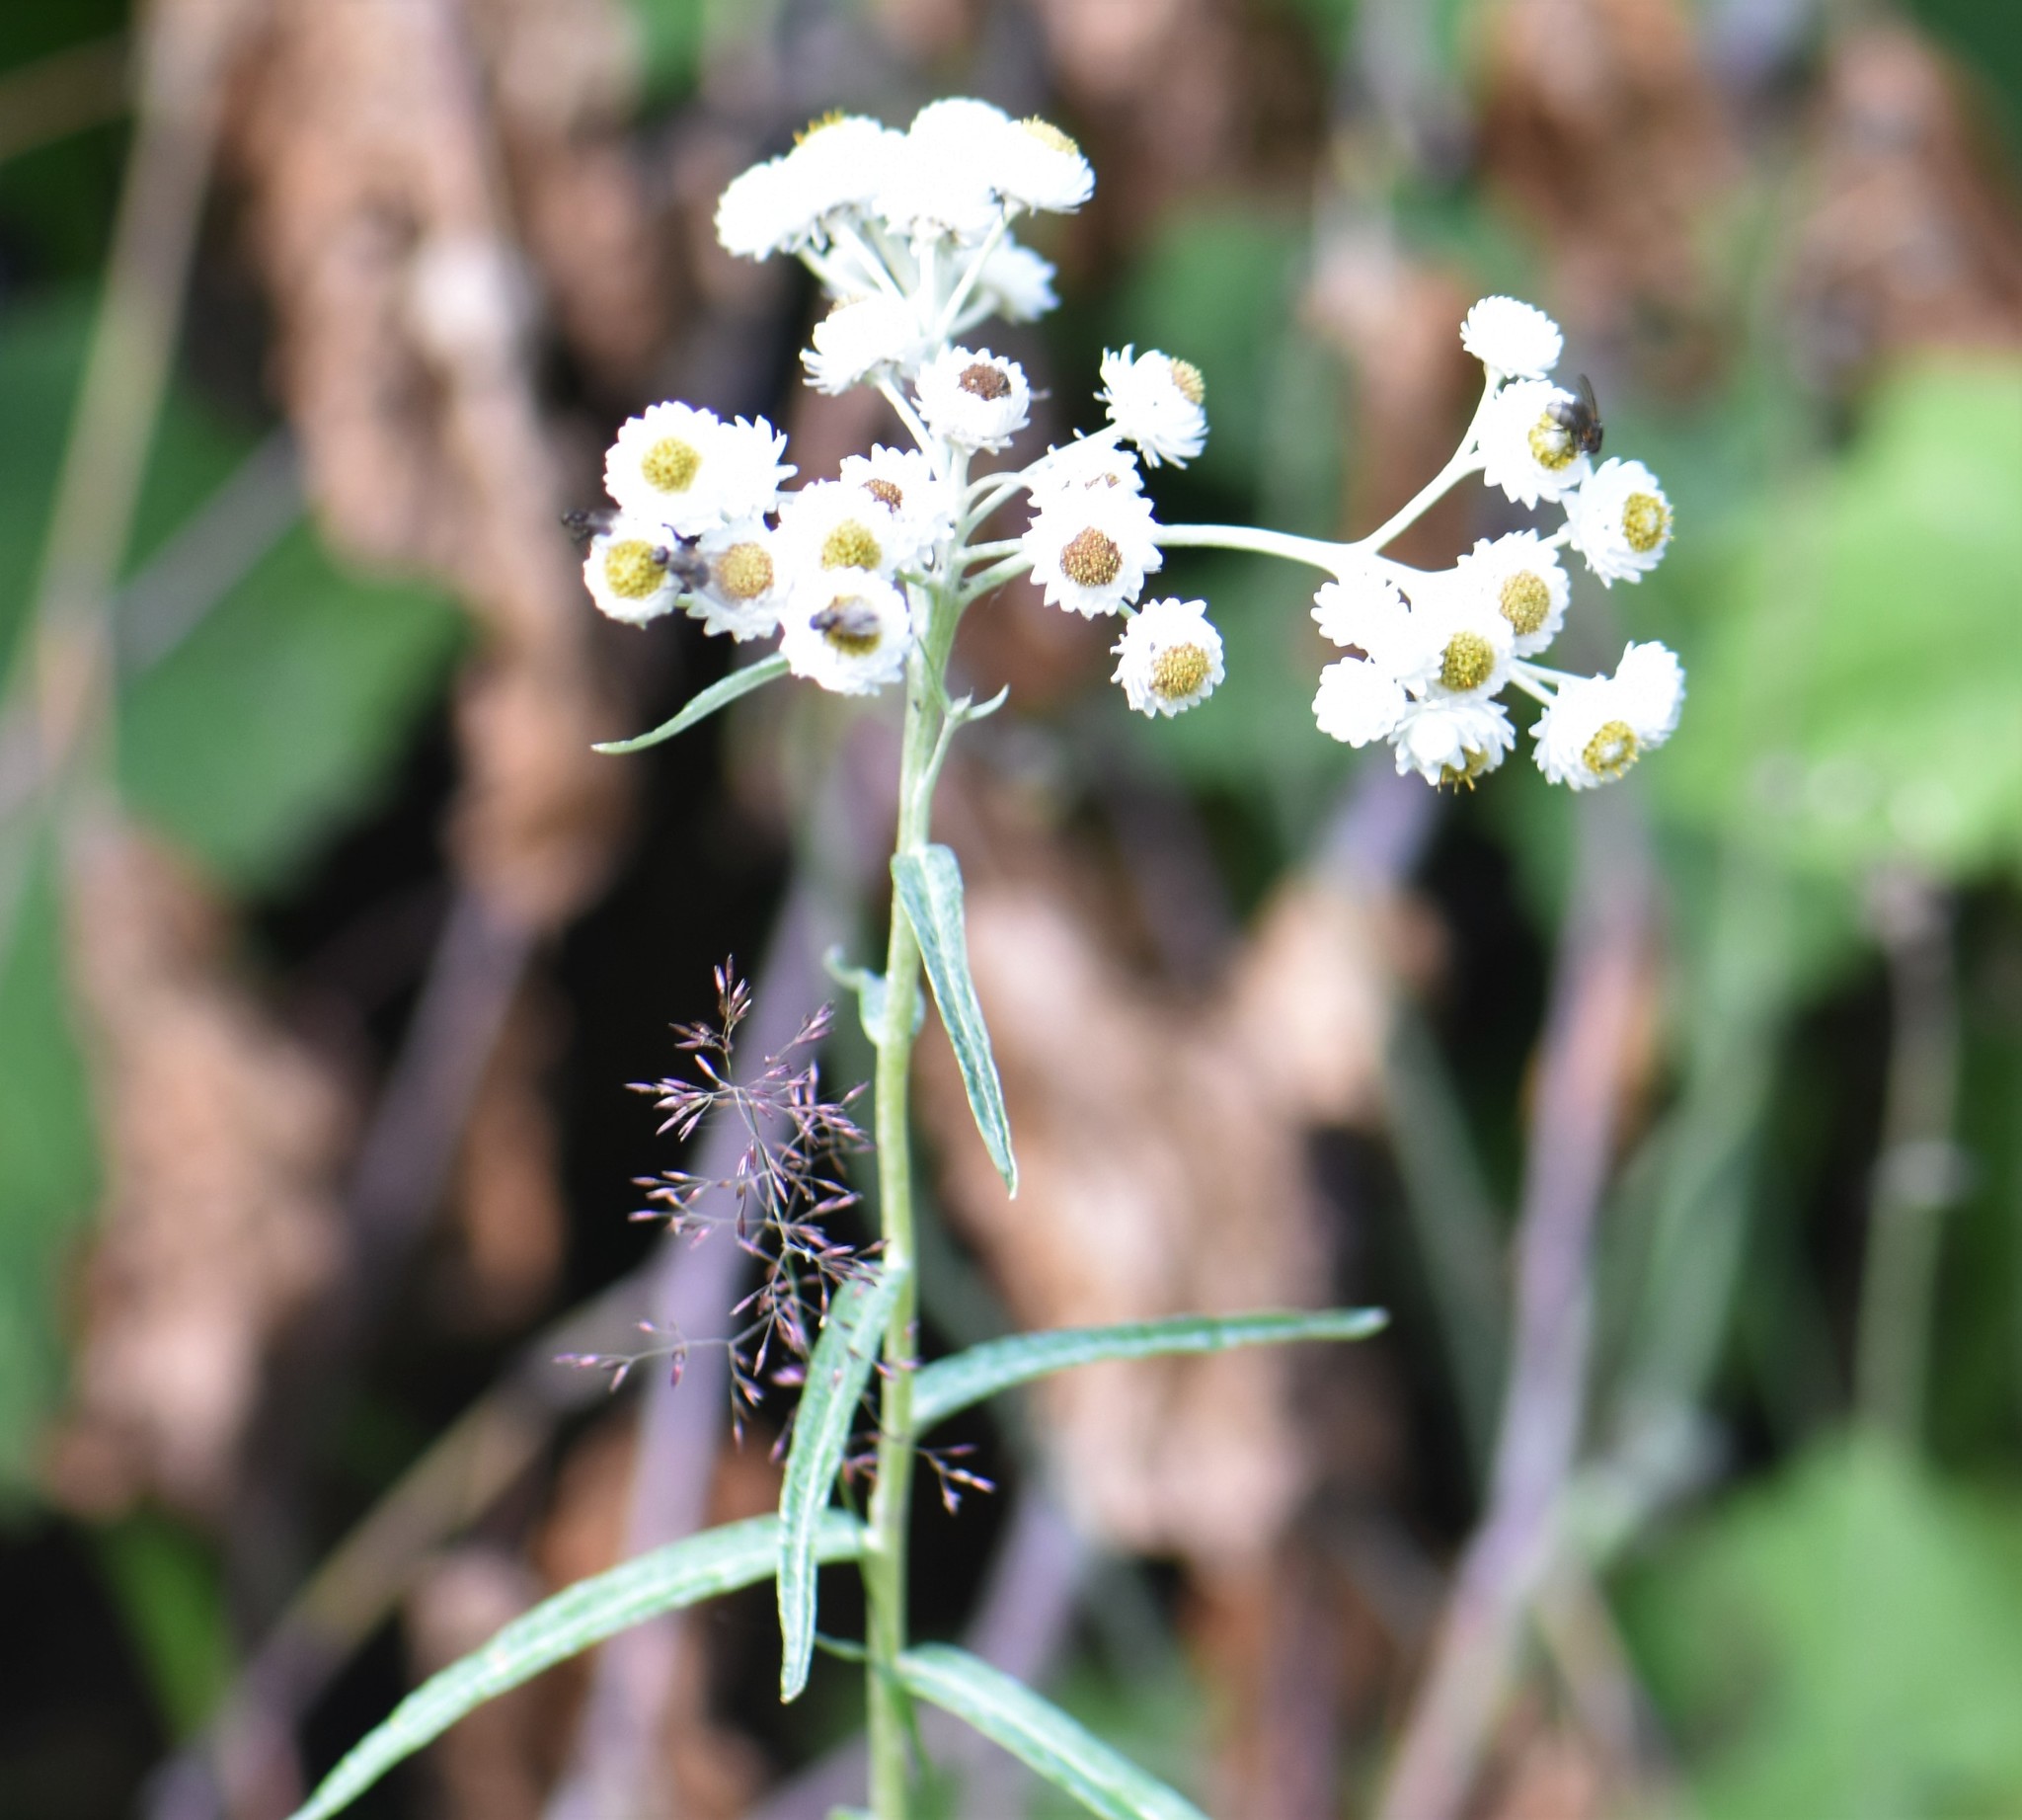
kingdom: Plantae
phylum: Tracheophyta
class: Magnoliopsida
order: Asterales
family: Asteraceae
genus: Anaphalis
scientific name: Anaphalis margaritacea
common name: Pearly everlasting
